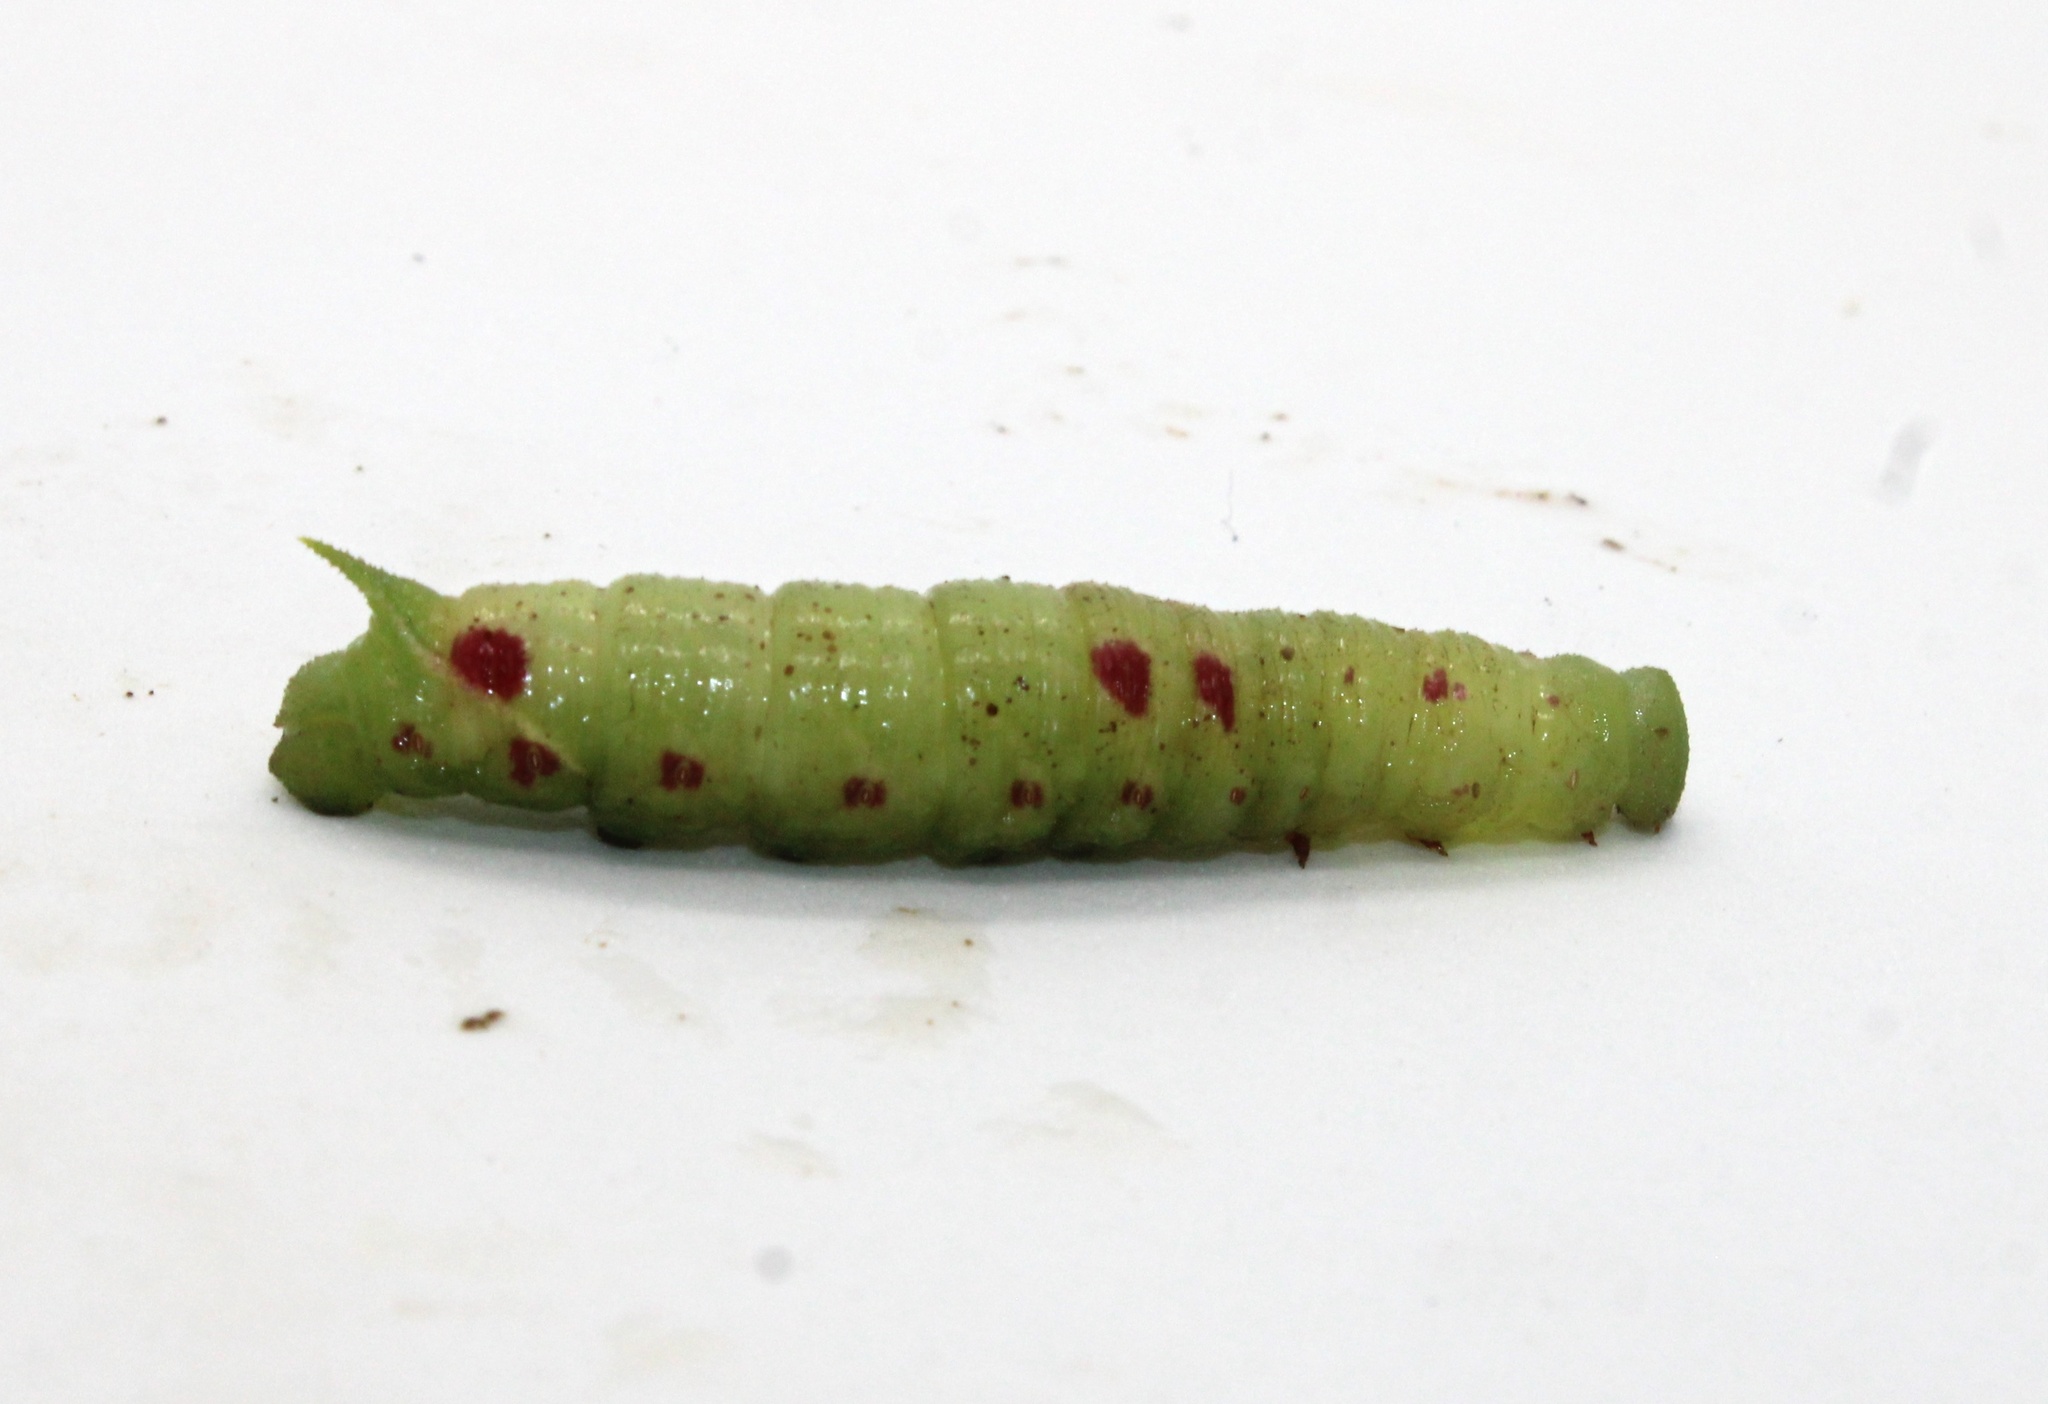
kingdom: Animalia
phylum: Arthropoda
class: Insecta
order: Lepidoptera
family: Sphingidae
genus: Paonias
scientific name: Paonias myops
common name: Small-eyed sphinx
